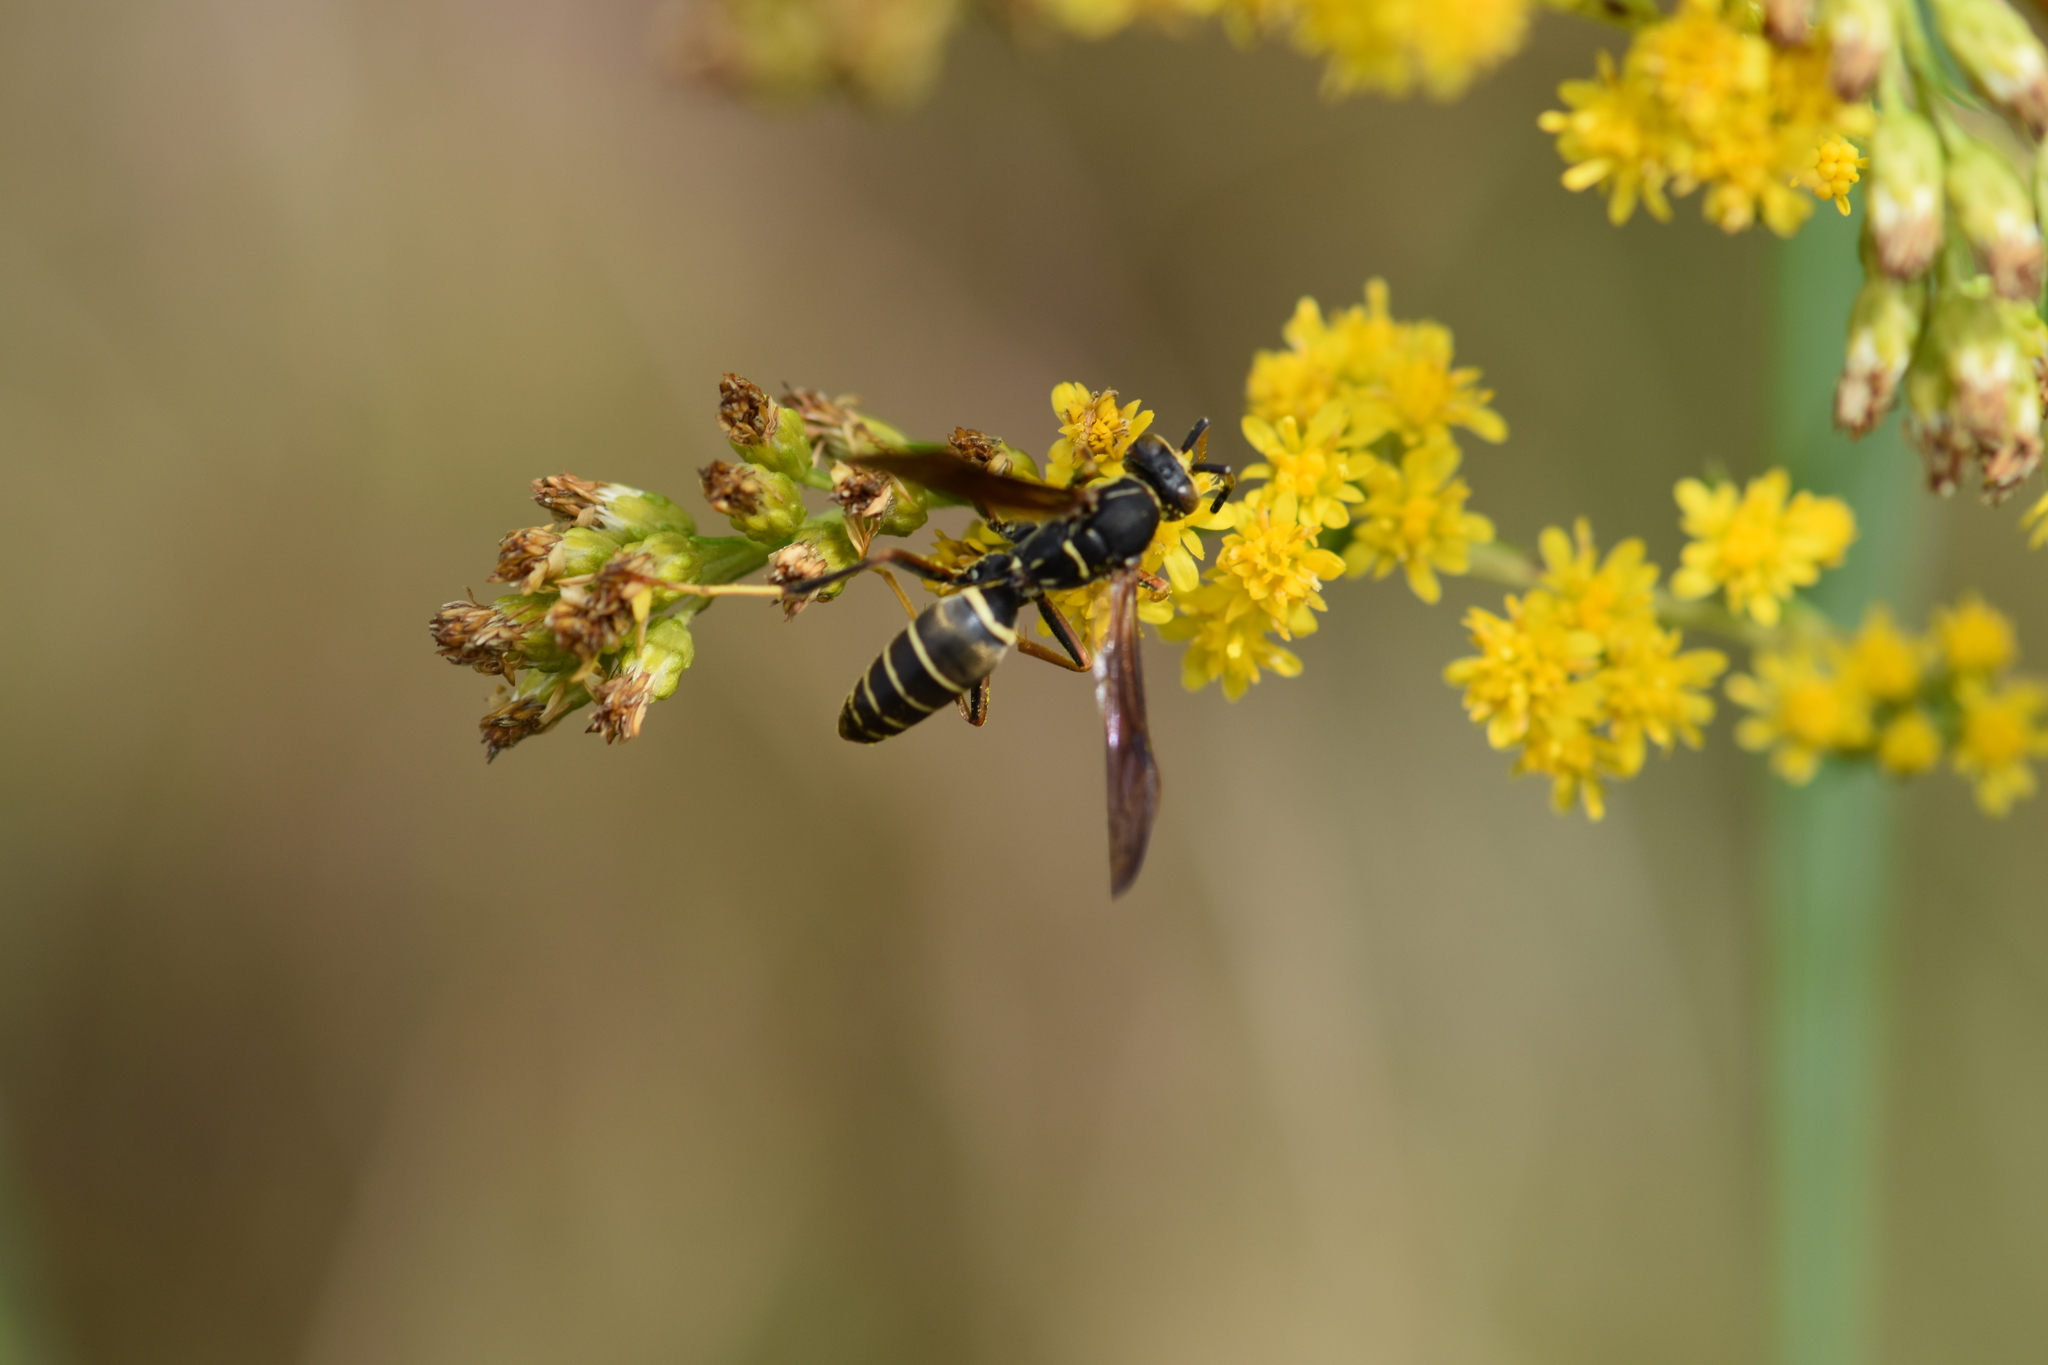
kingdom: Animalia
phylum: Arthropoda
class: Insecta
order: Hymenoptera
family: Eumenidae
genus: Polistes
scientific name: Polistes fuscatus
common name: Dark paper wasp
